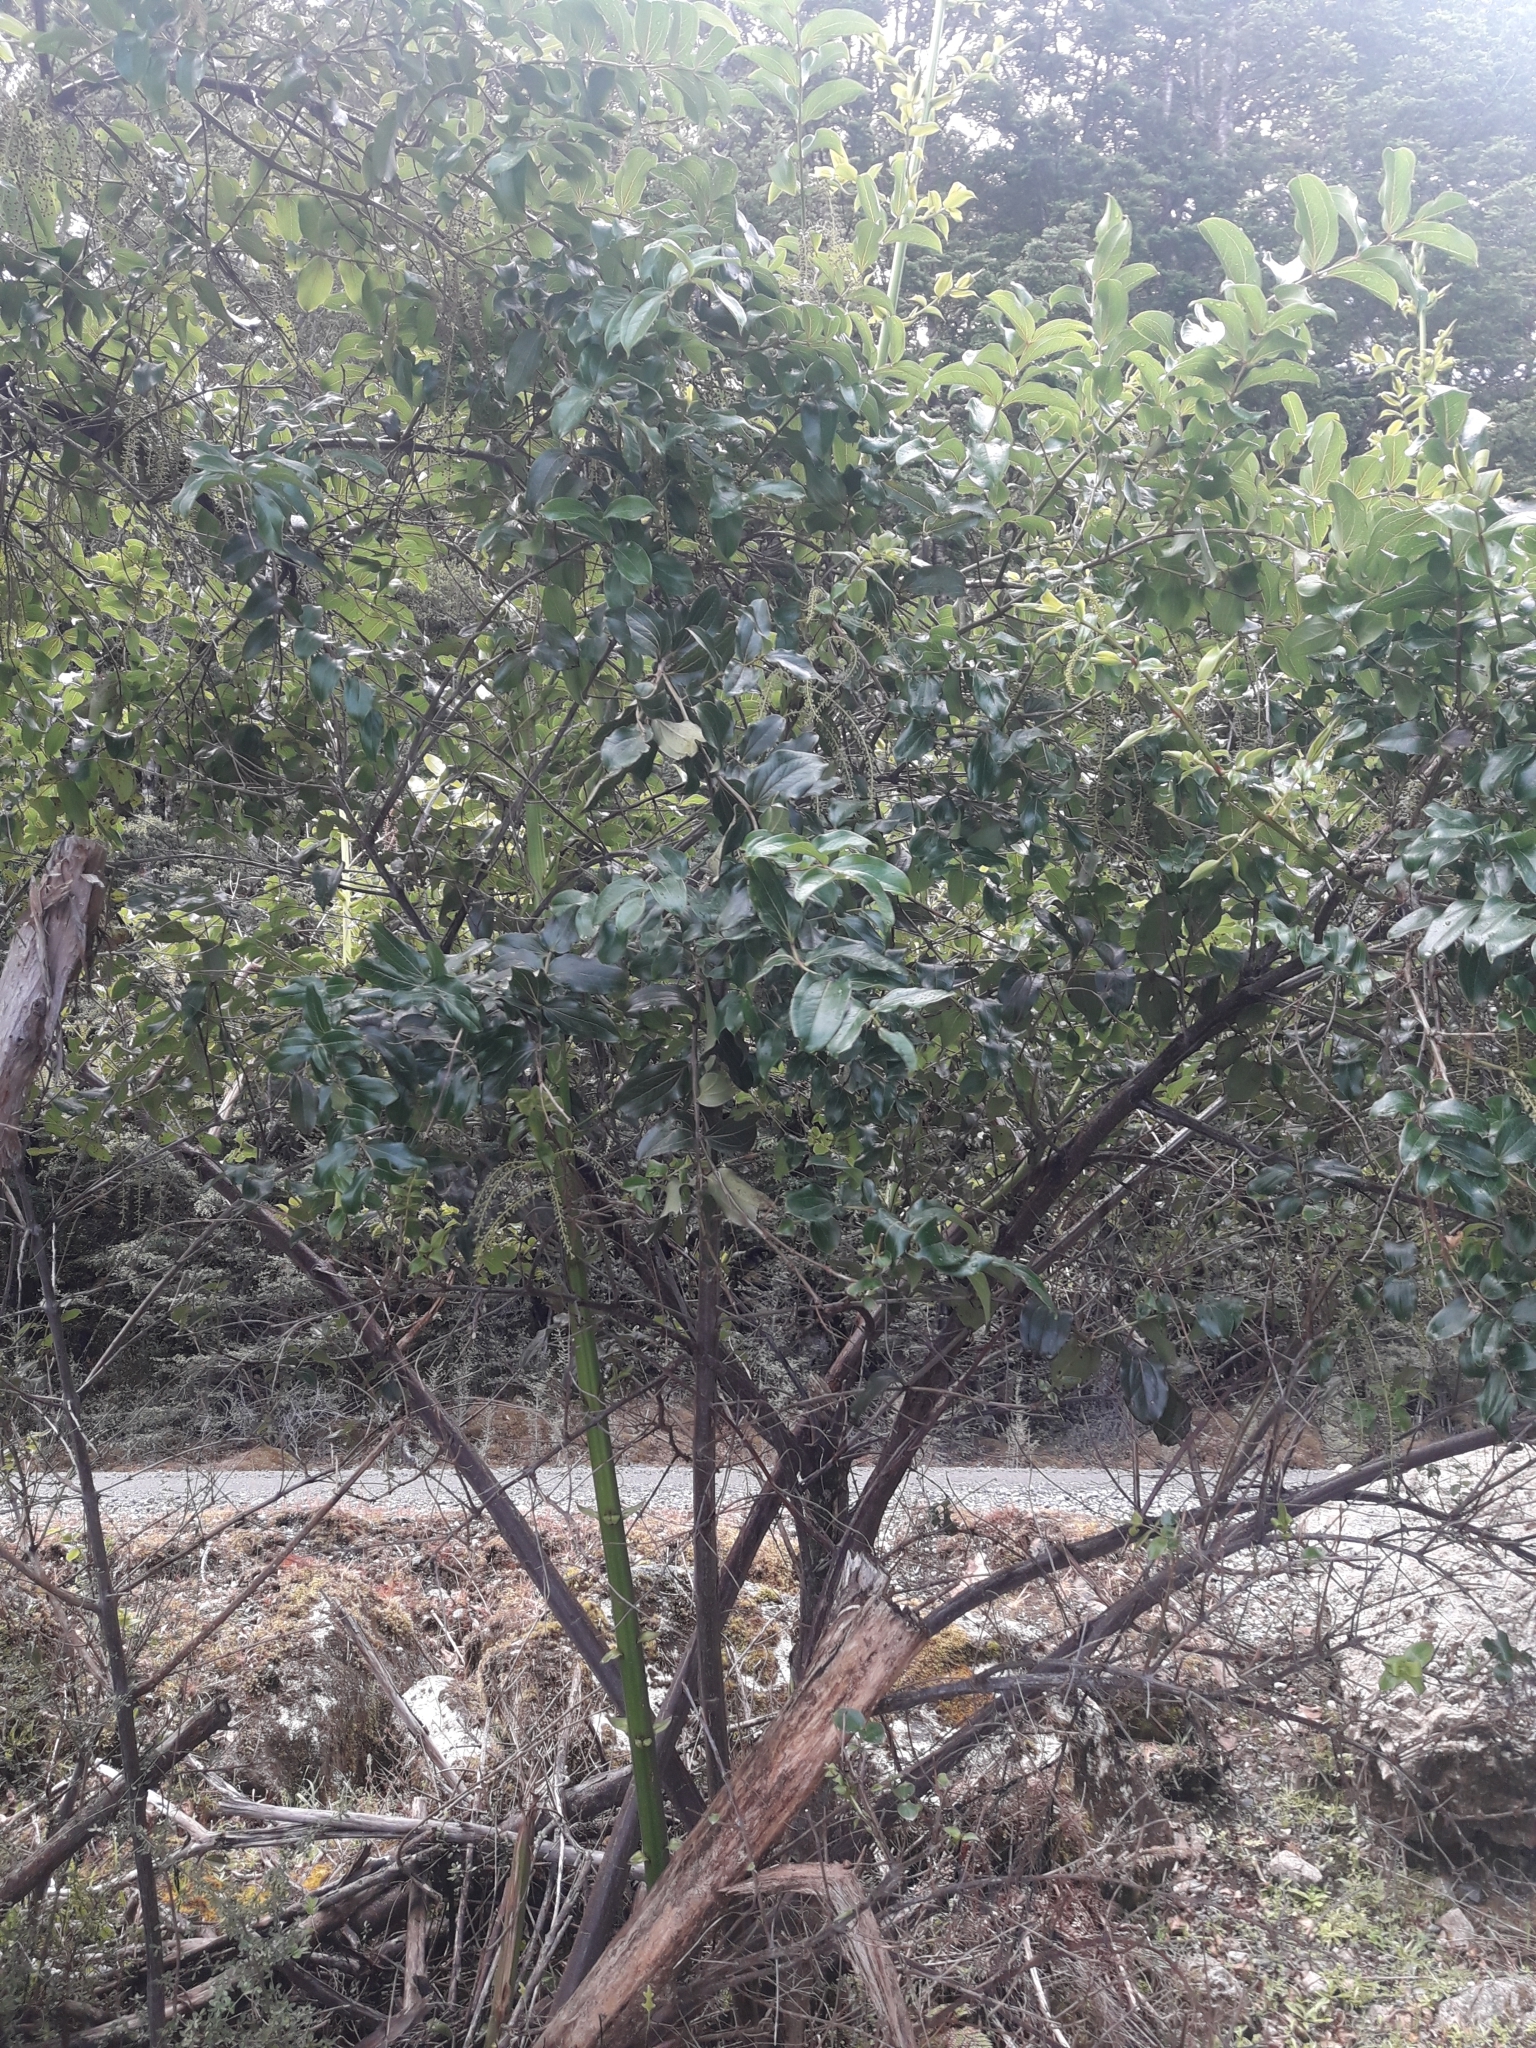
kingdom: Plantae
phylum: Tracheophyta
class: Magnoliopsida
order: Cucurbitales
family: Coriariaceae
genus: Coriaria
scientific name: Coriaria arborea
